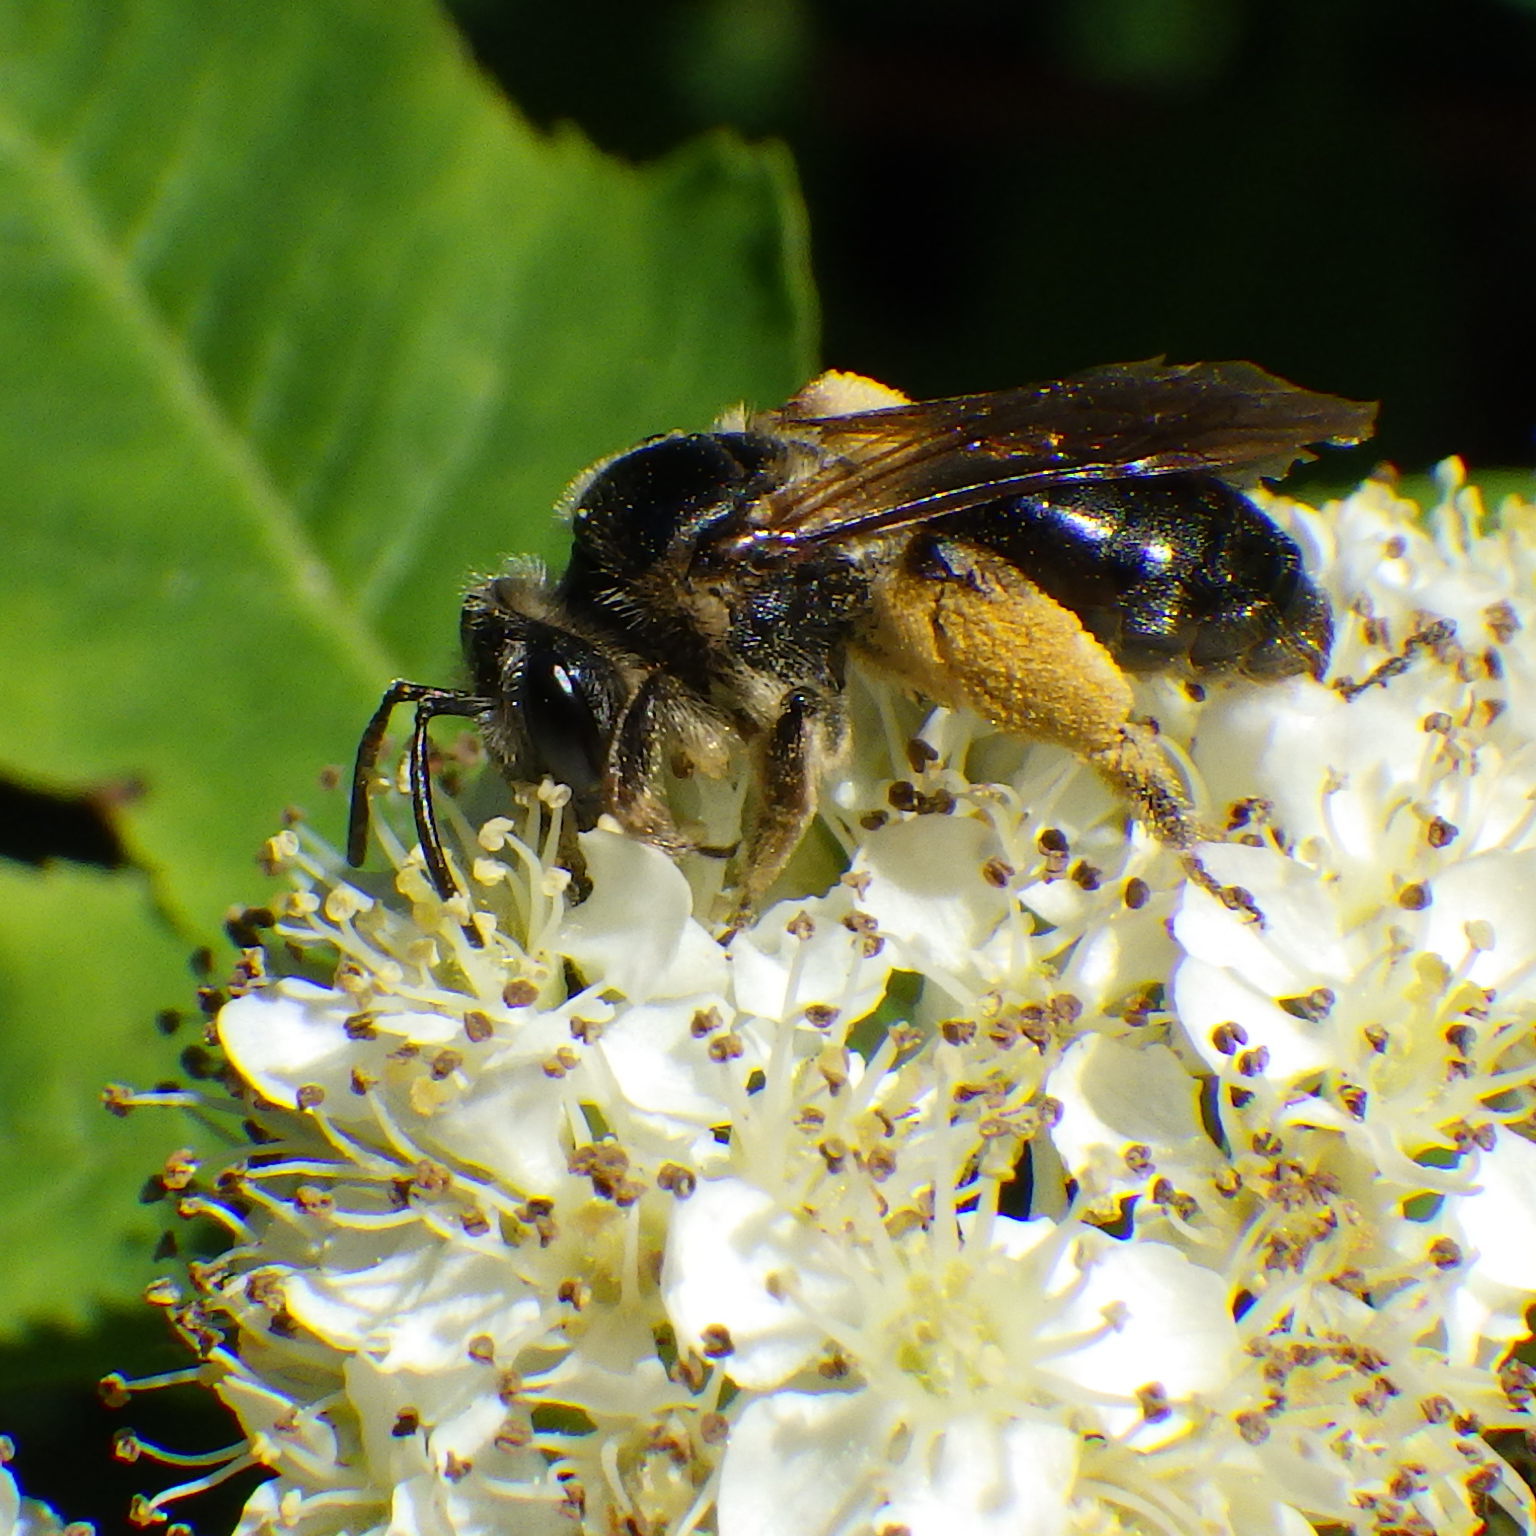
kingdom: Animalia
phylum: Arthropoda
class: Insecta
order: Hymenoptera
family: Andrenidae
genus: Andrena
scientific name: Andrena crataegi
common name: Hawthorn mining bee
